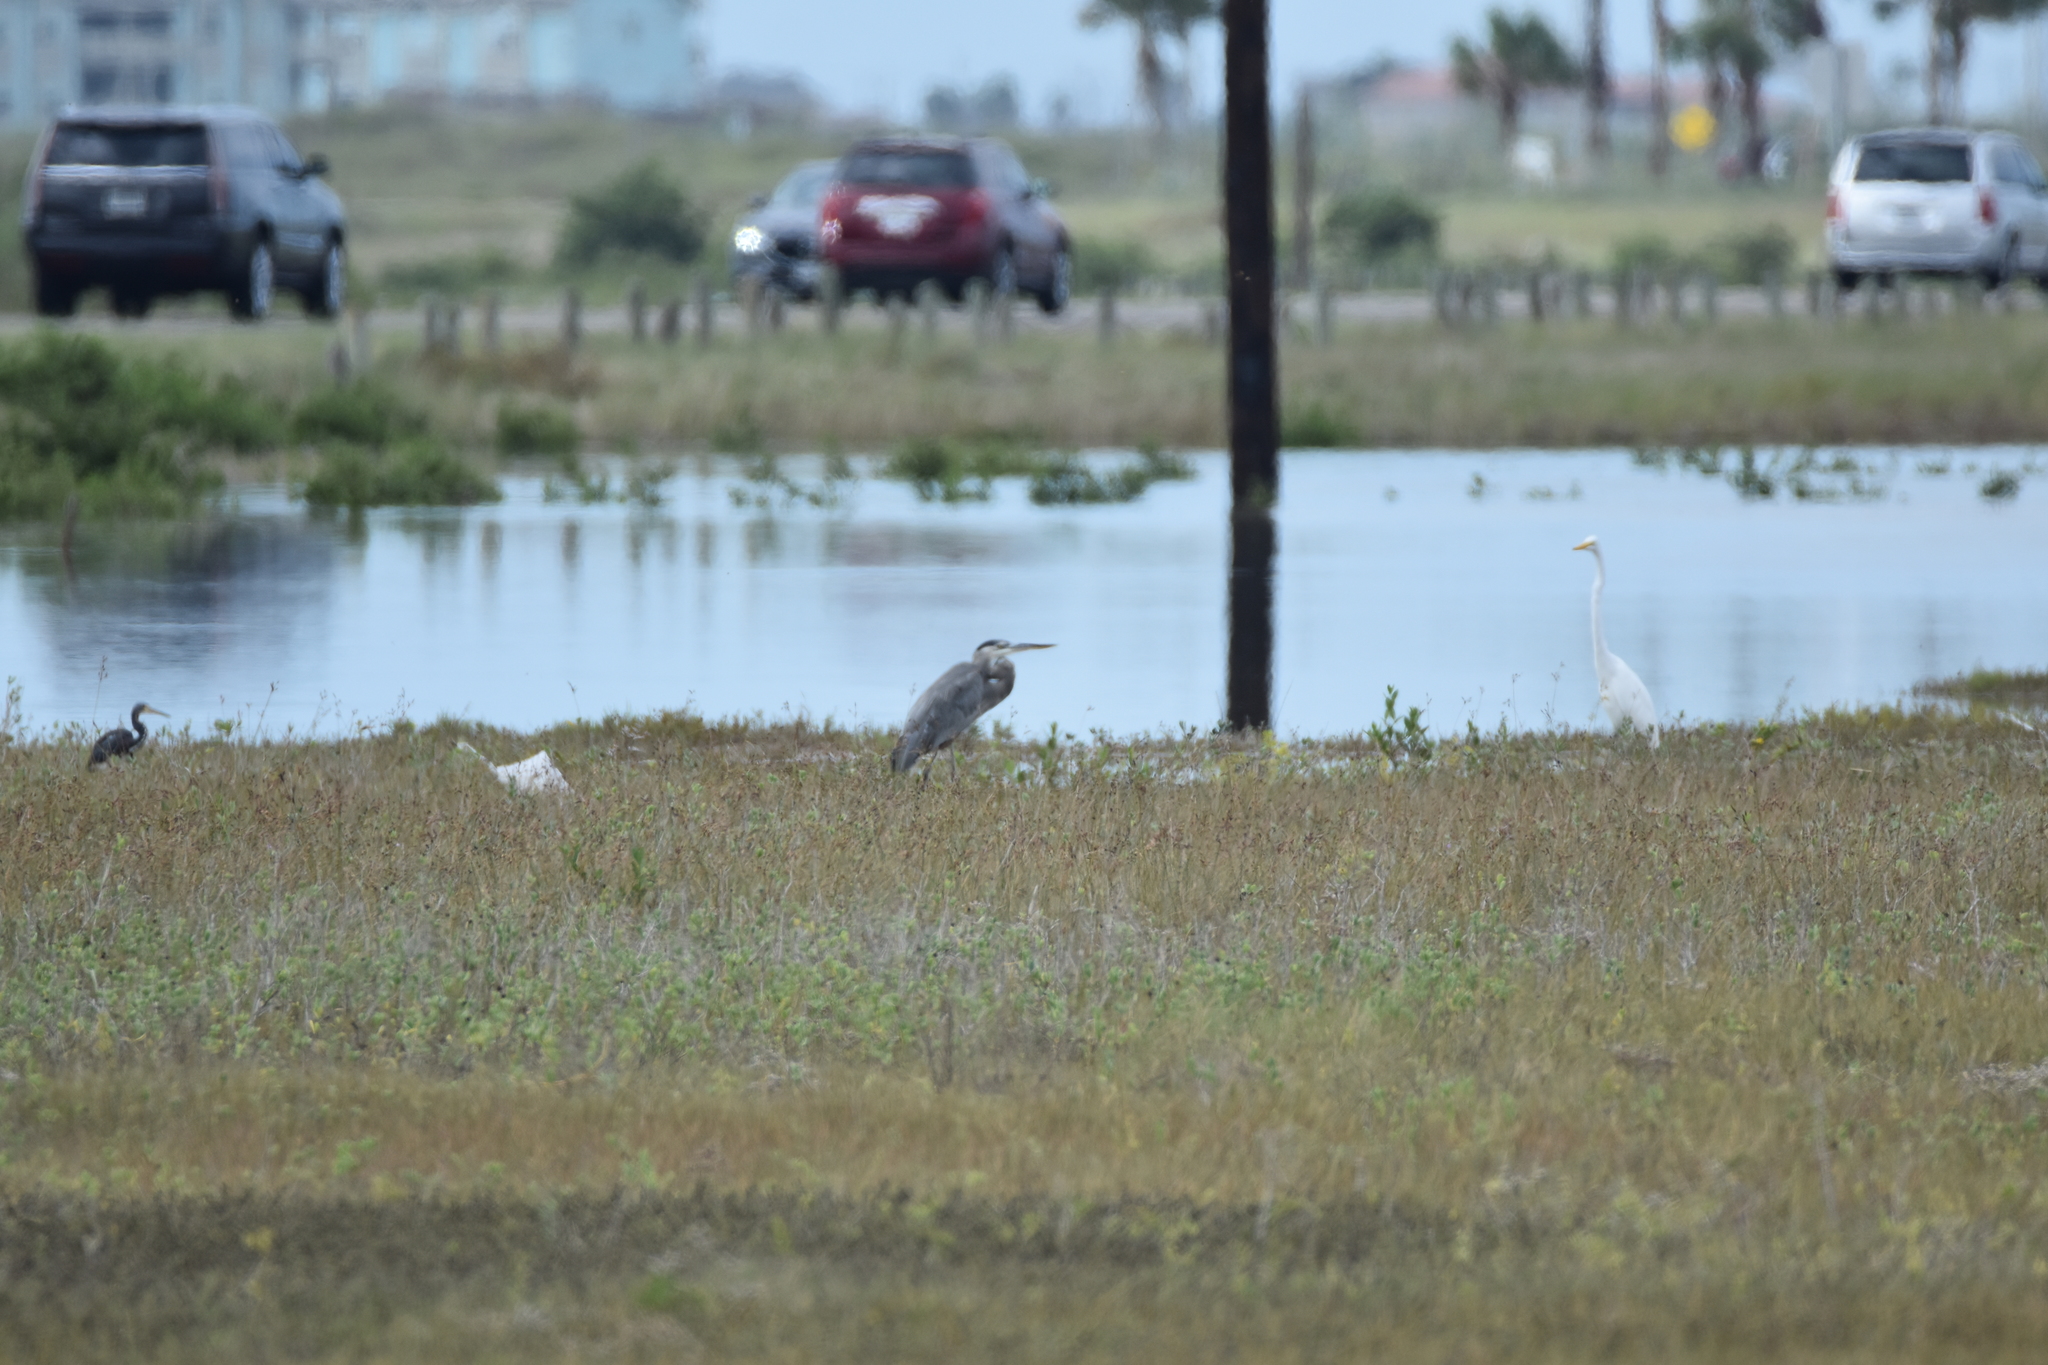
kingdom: Animalia
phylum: Chordata
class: Aves
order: Pelecaniformes
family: Ardeidae
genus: Egretta
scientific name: Egretta tricolor
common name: Tricolored heron
